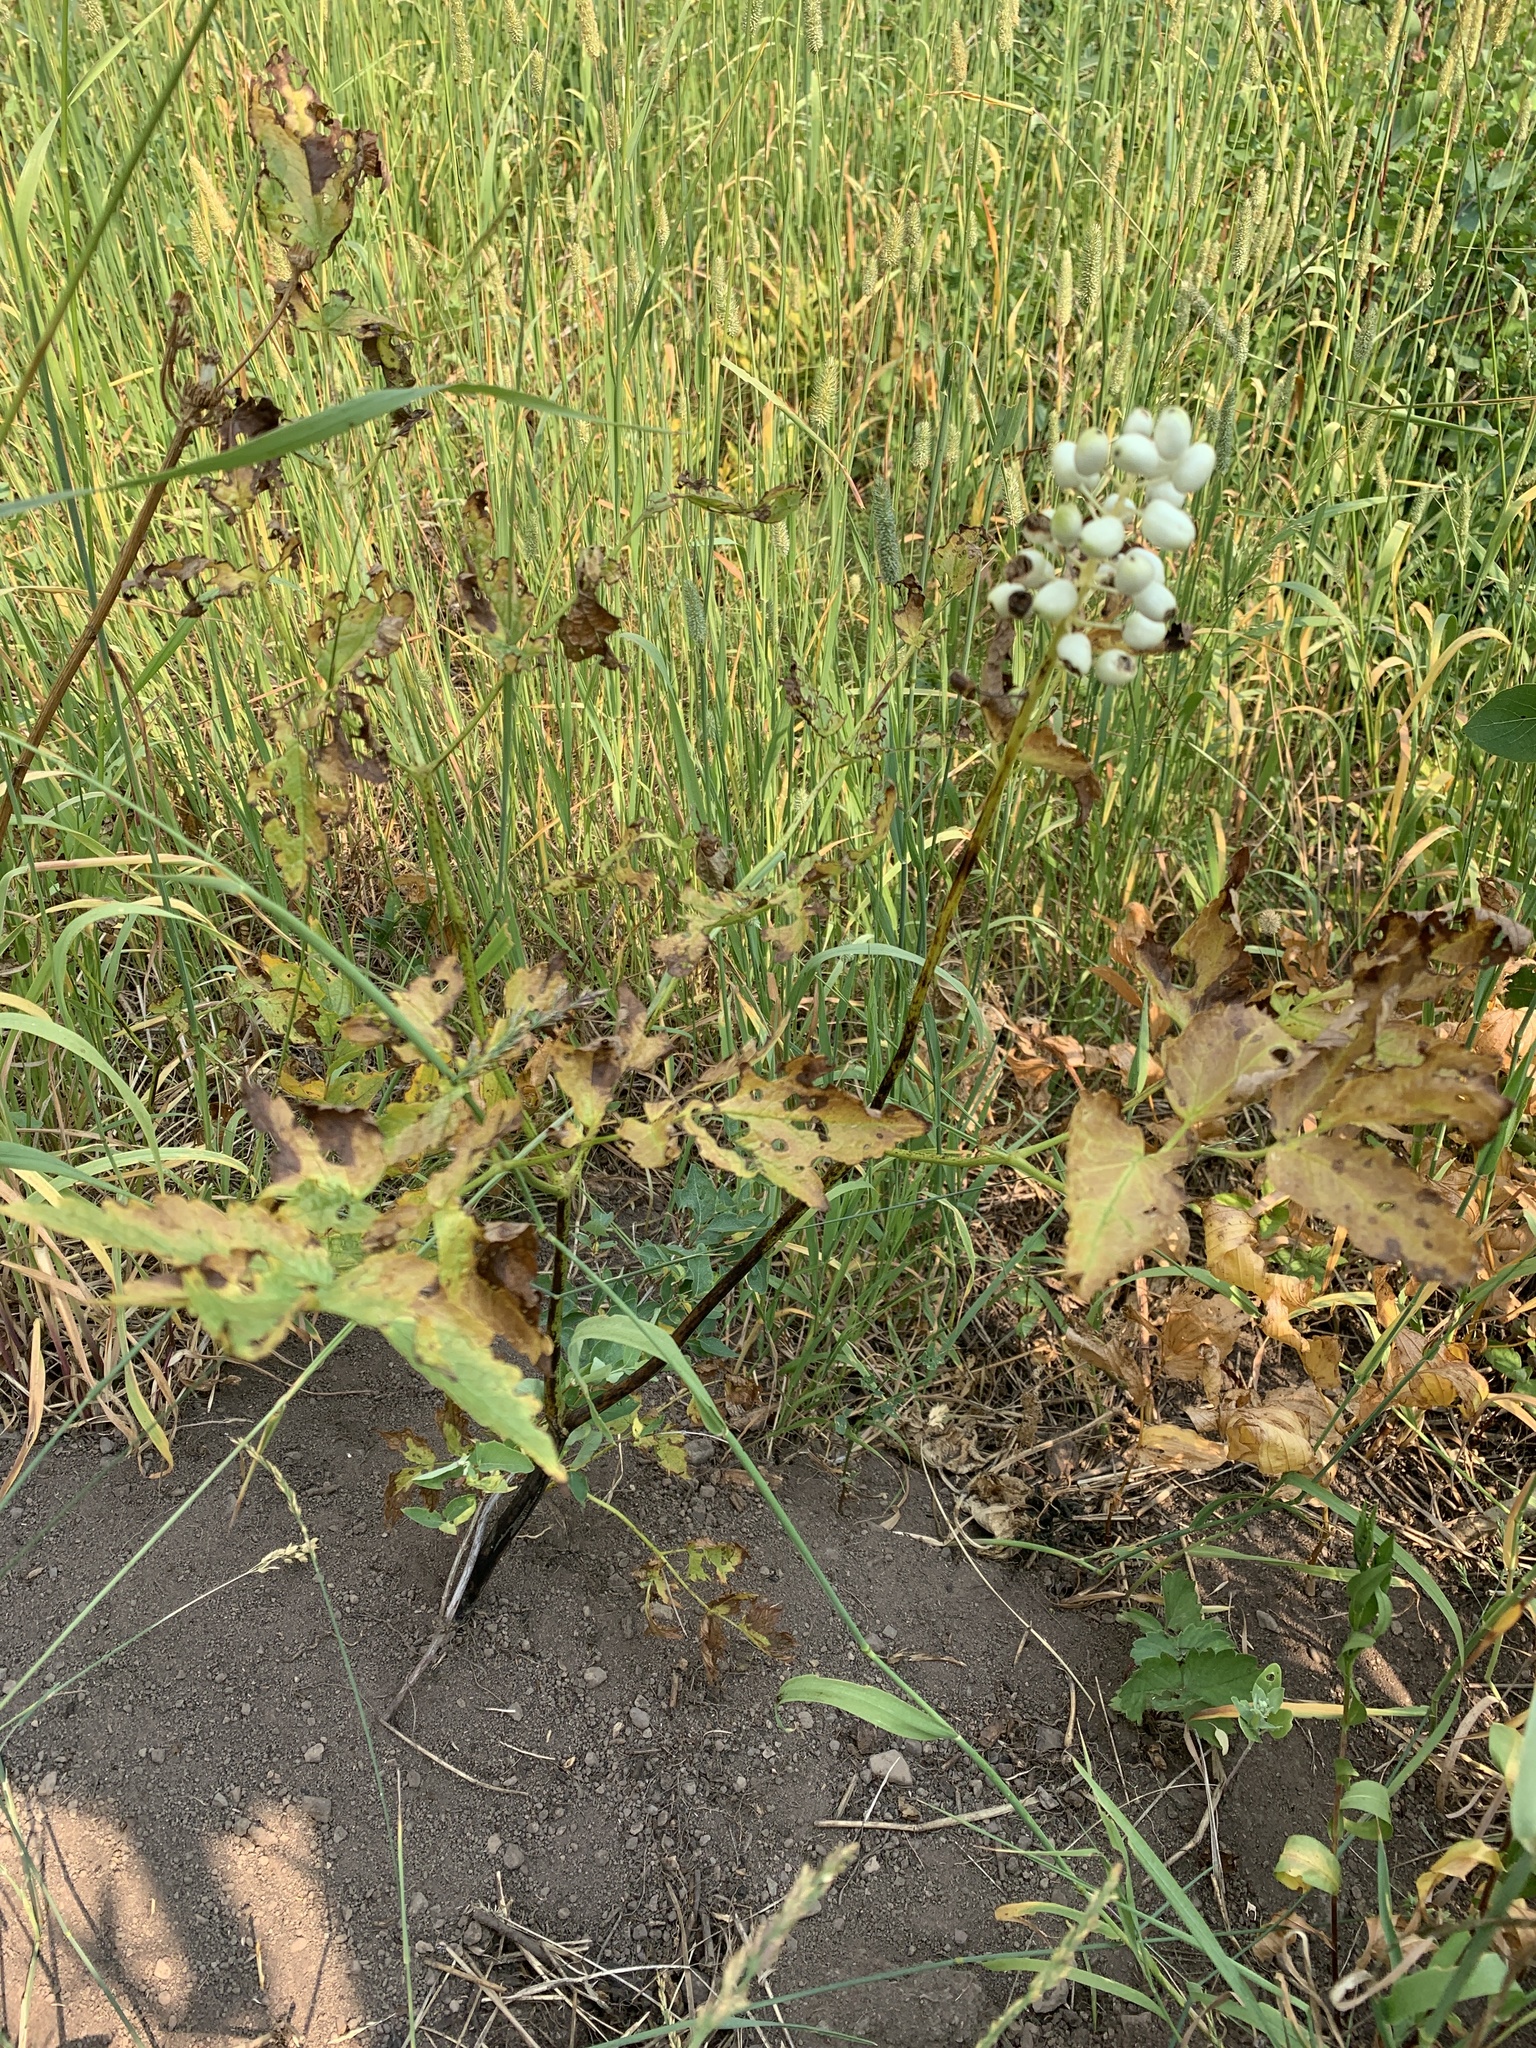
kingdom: Plantae
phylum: Tracheophyta
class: Magnoliopsida
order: Ranunculales
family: Ranunculaceae
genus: Actaea
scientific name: Actaea rubra
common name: Red baneberry
